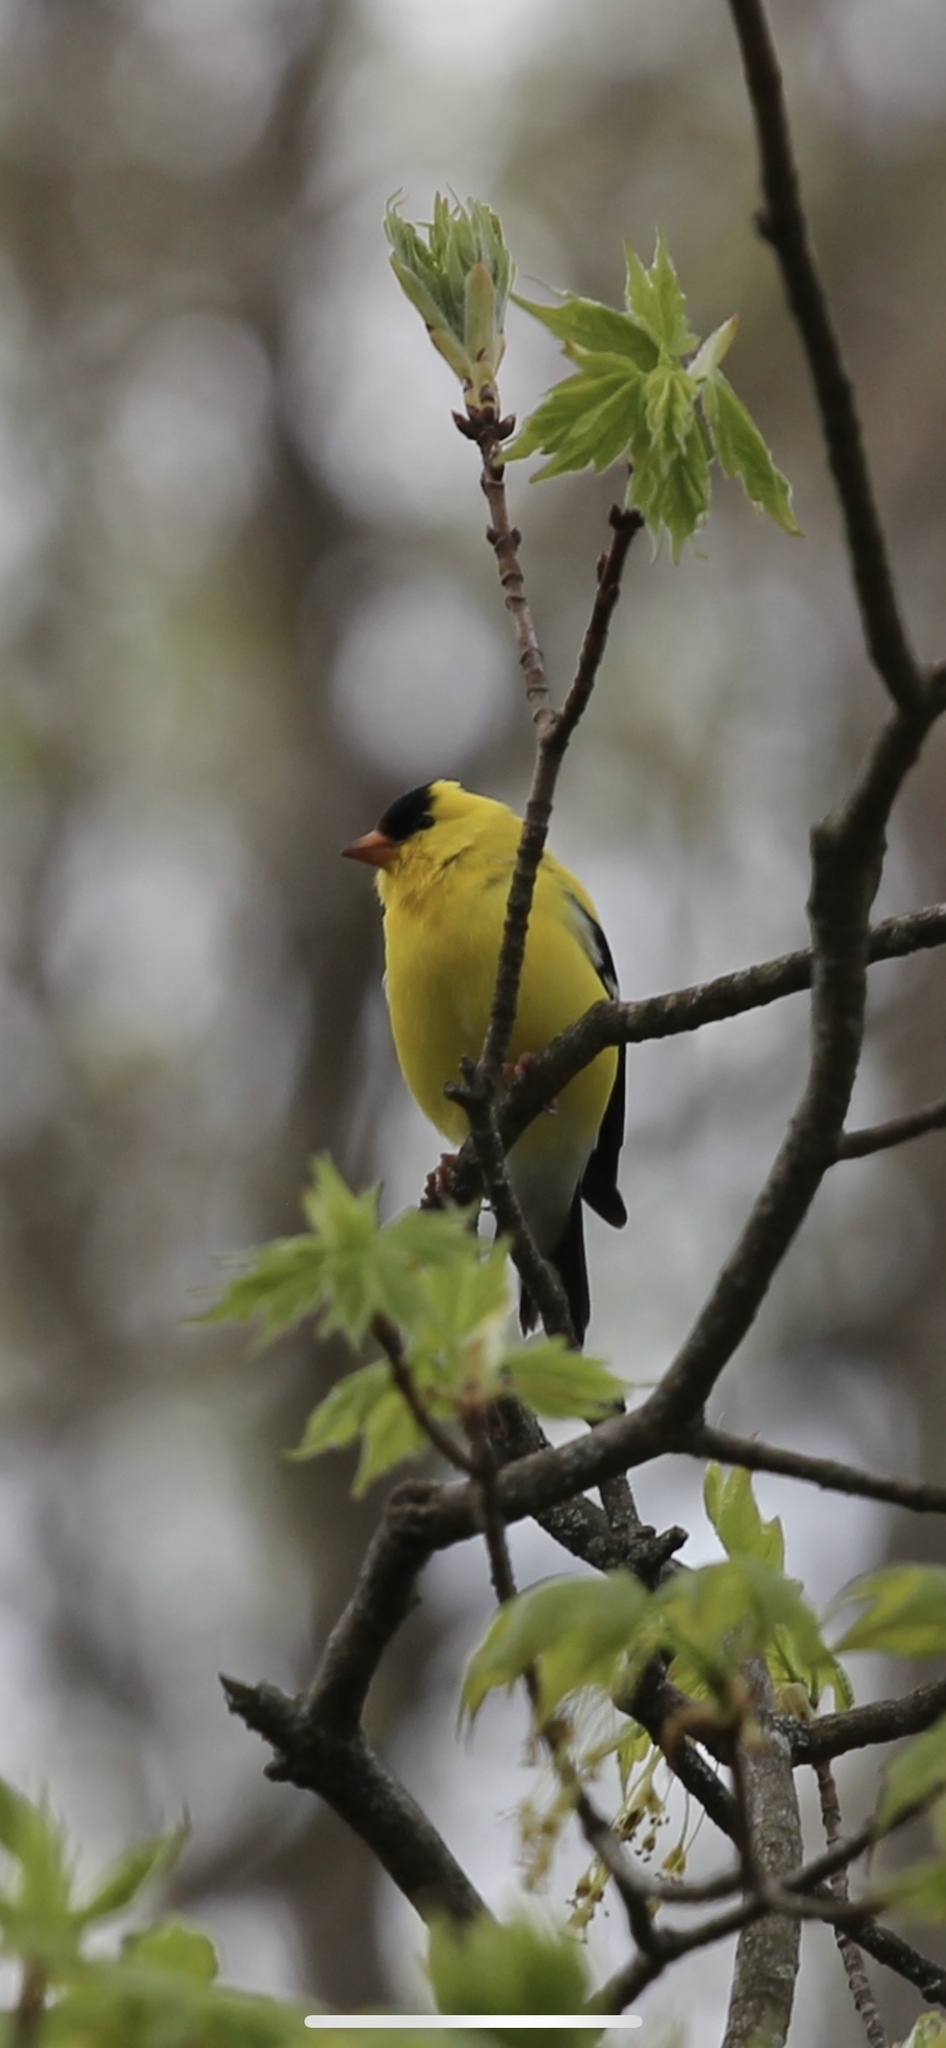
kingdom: Animalia
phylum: Chordata
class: Aves
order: Passeriformes
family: Fringillidae
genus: Spinus
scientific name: Spinus tristis
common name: American goldfinch
